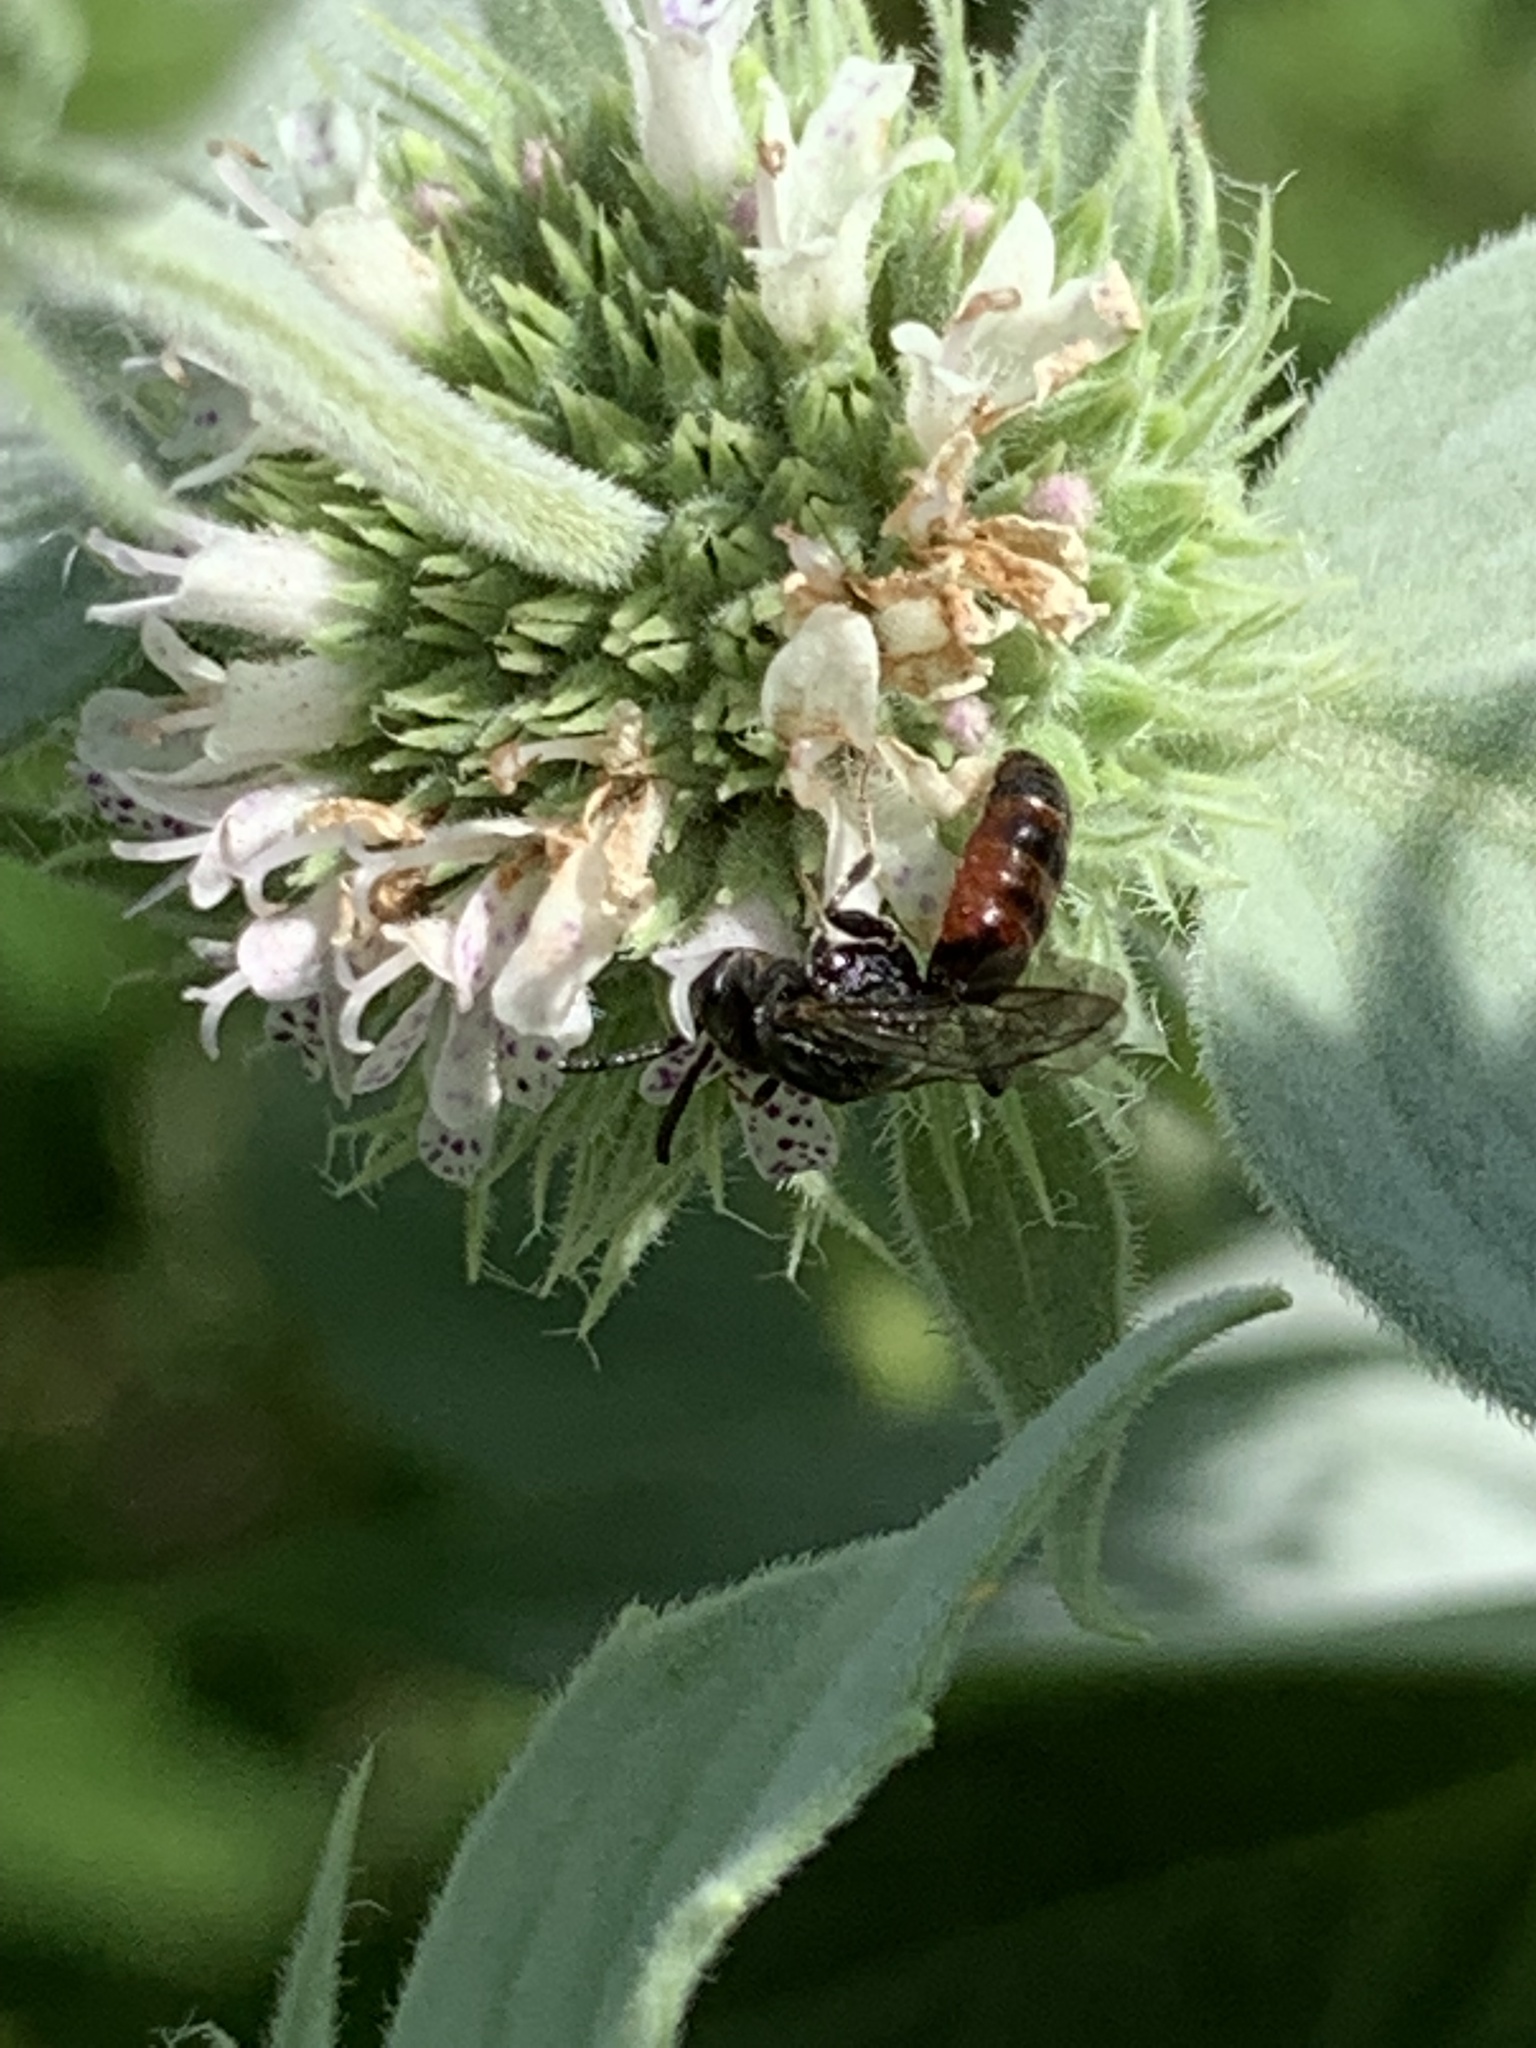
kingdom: Animalia
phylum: Arthropoda
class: Insecta
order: Hymenoptera
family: Halictidae
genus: Sphecodes
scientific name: Sphecodes
